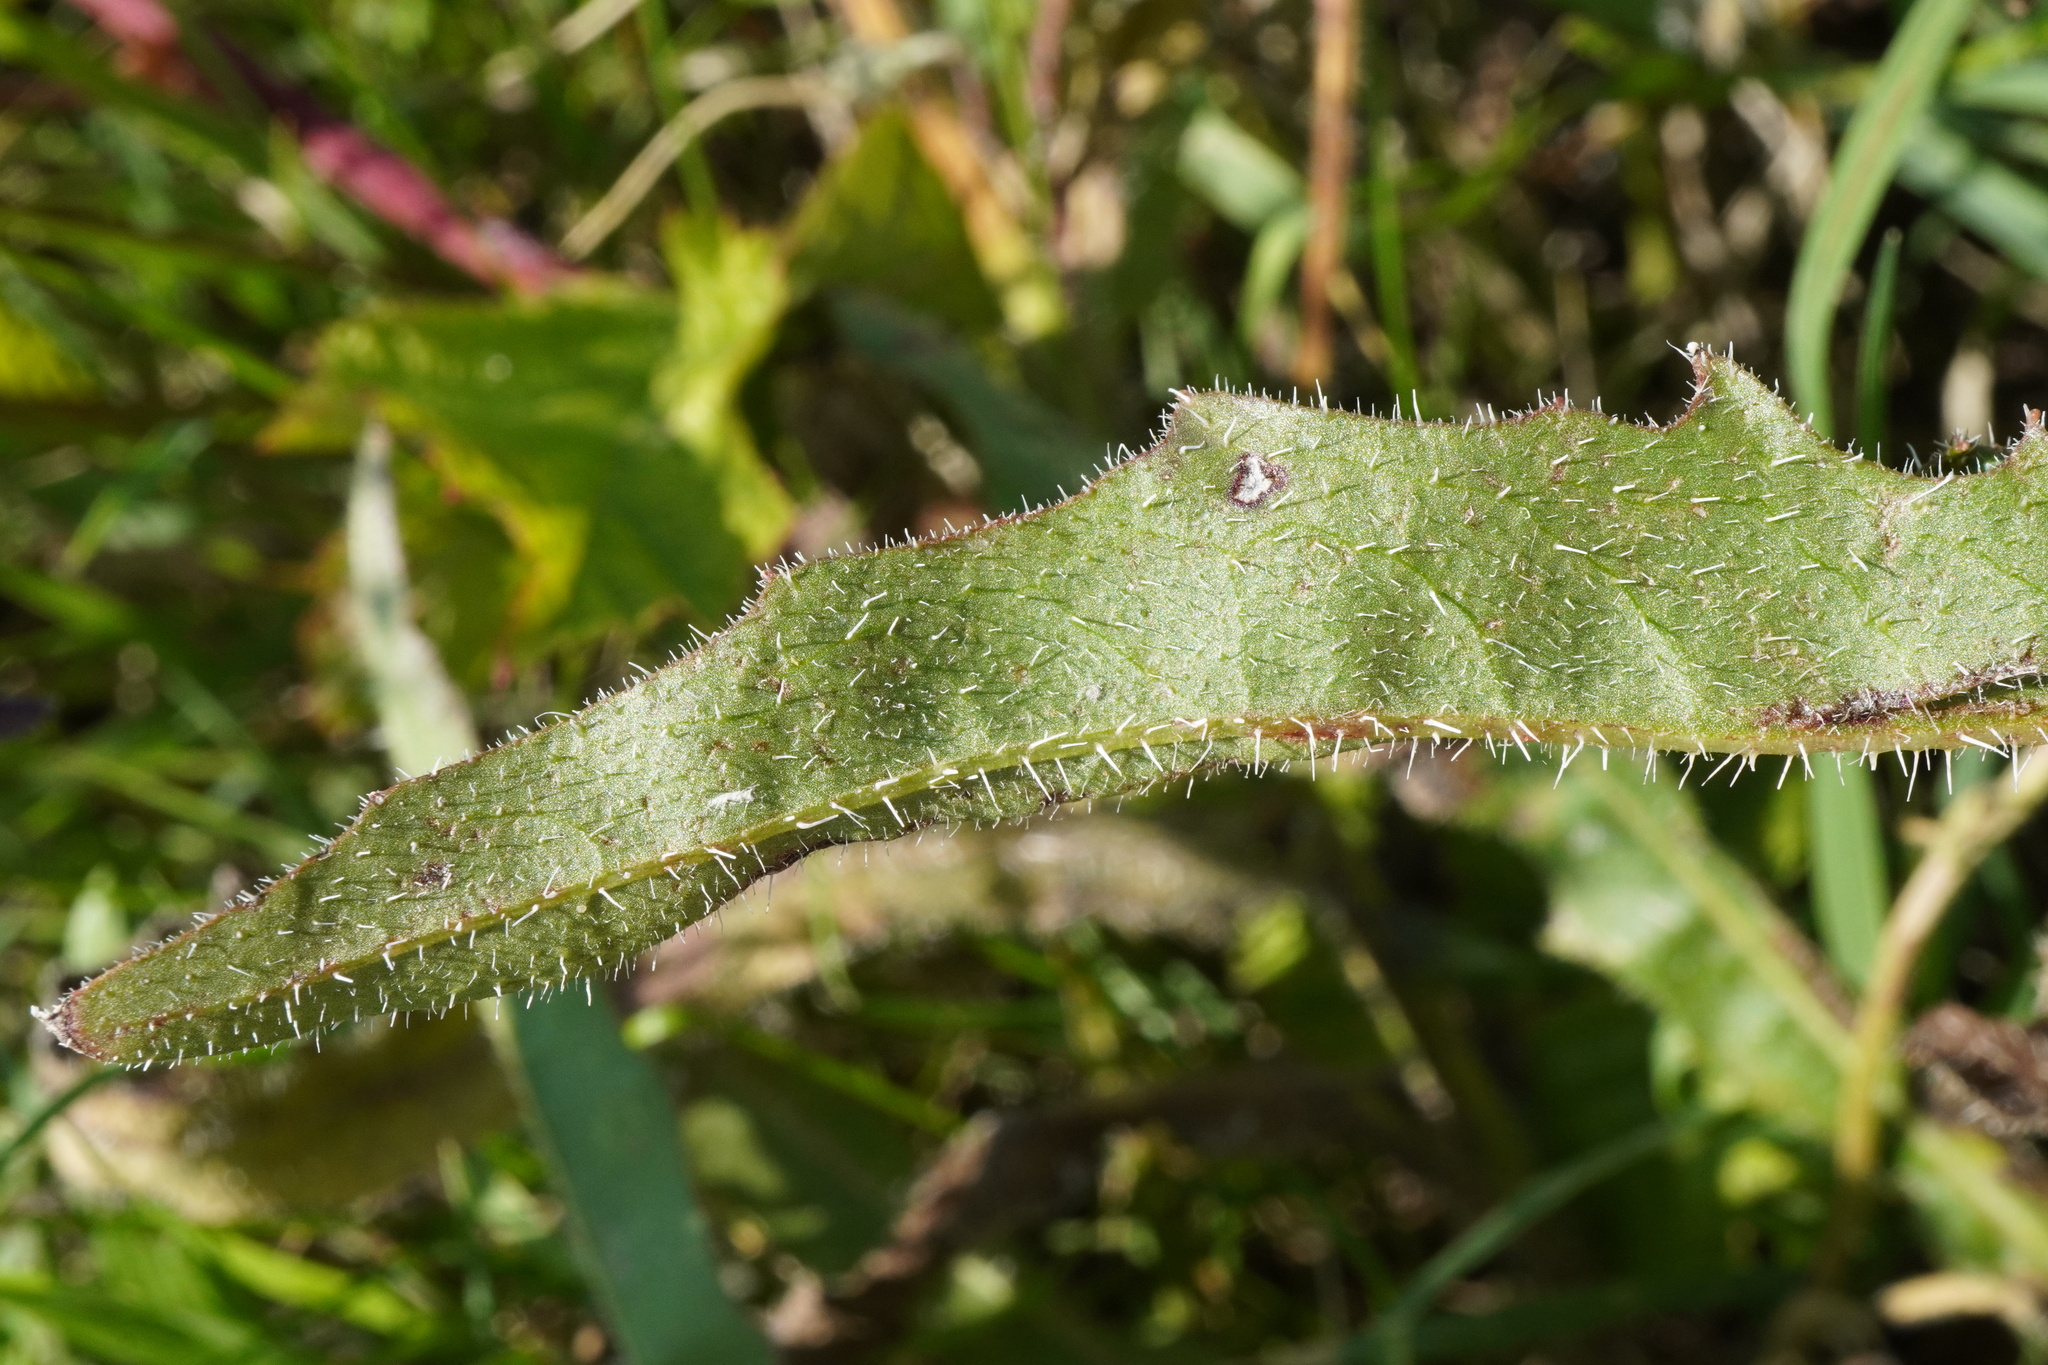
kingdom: Plantae
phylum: Tracheophyta
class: Magnoliopsida
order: Asterales
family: Asteraceae
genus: Picris
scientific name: Picris hieracioides
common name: Hawkweed oxtongue
